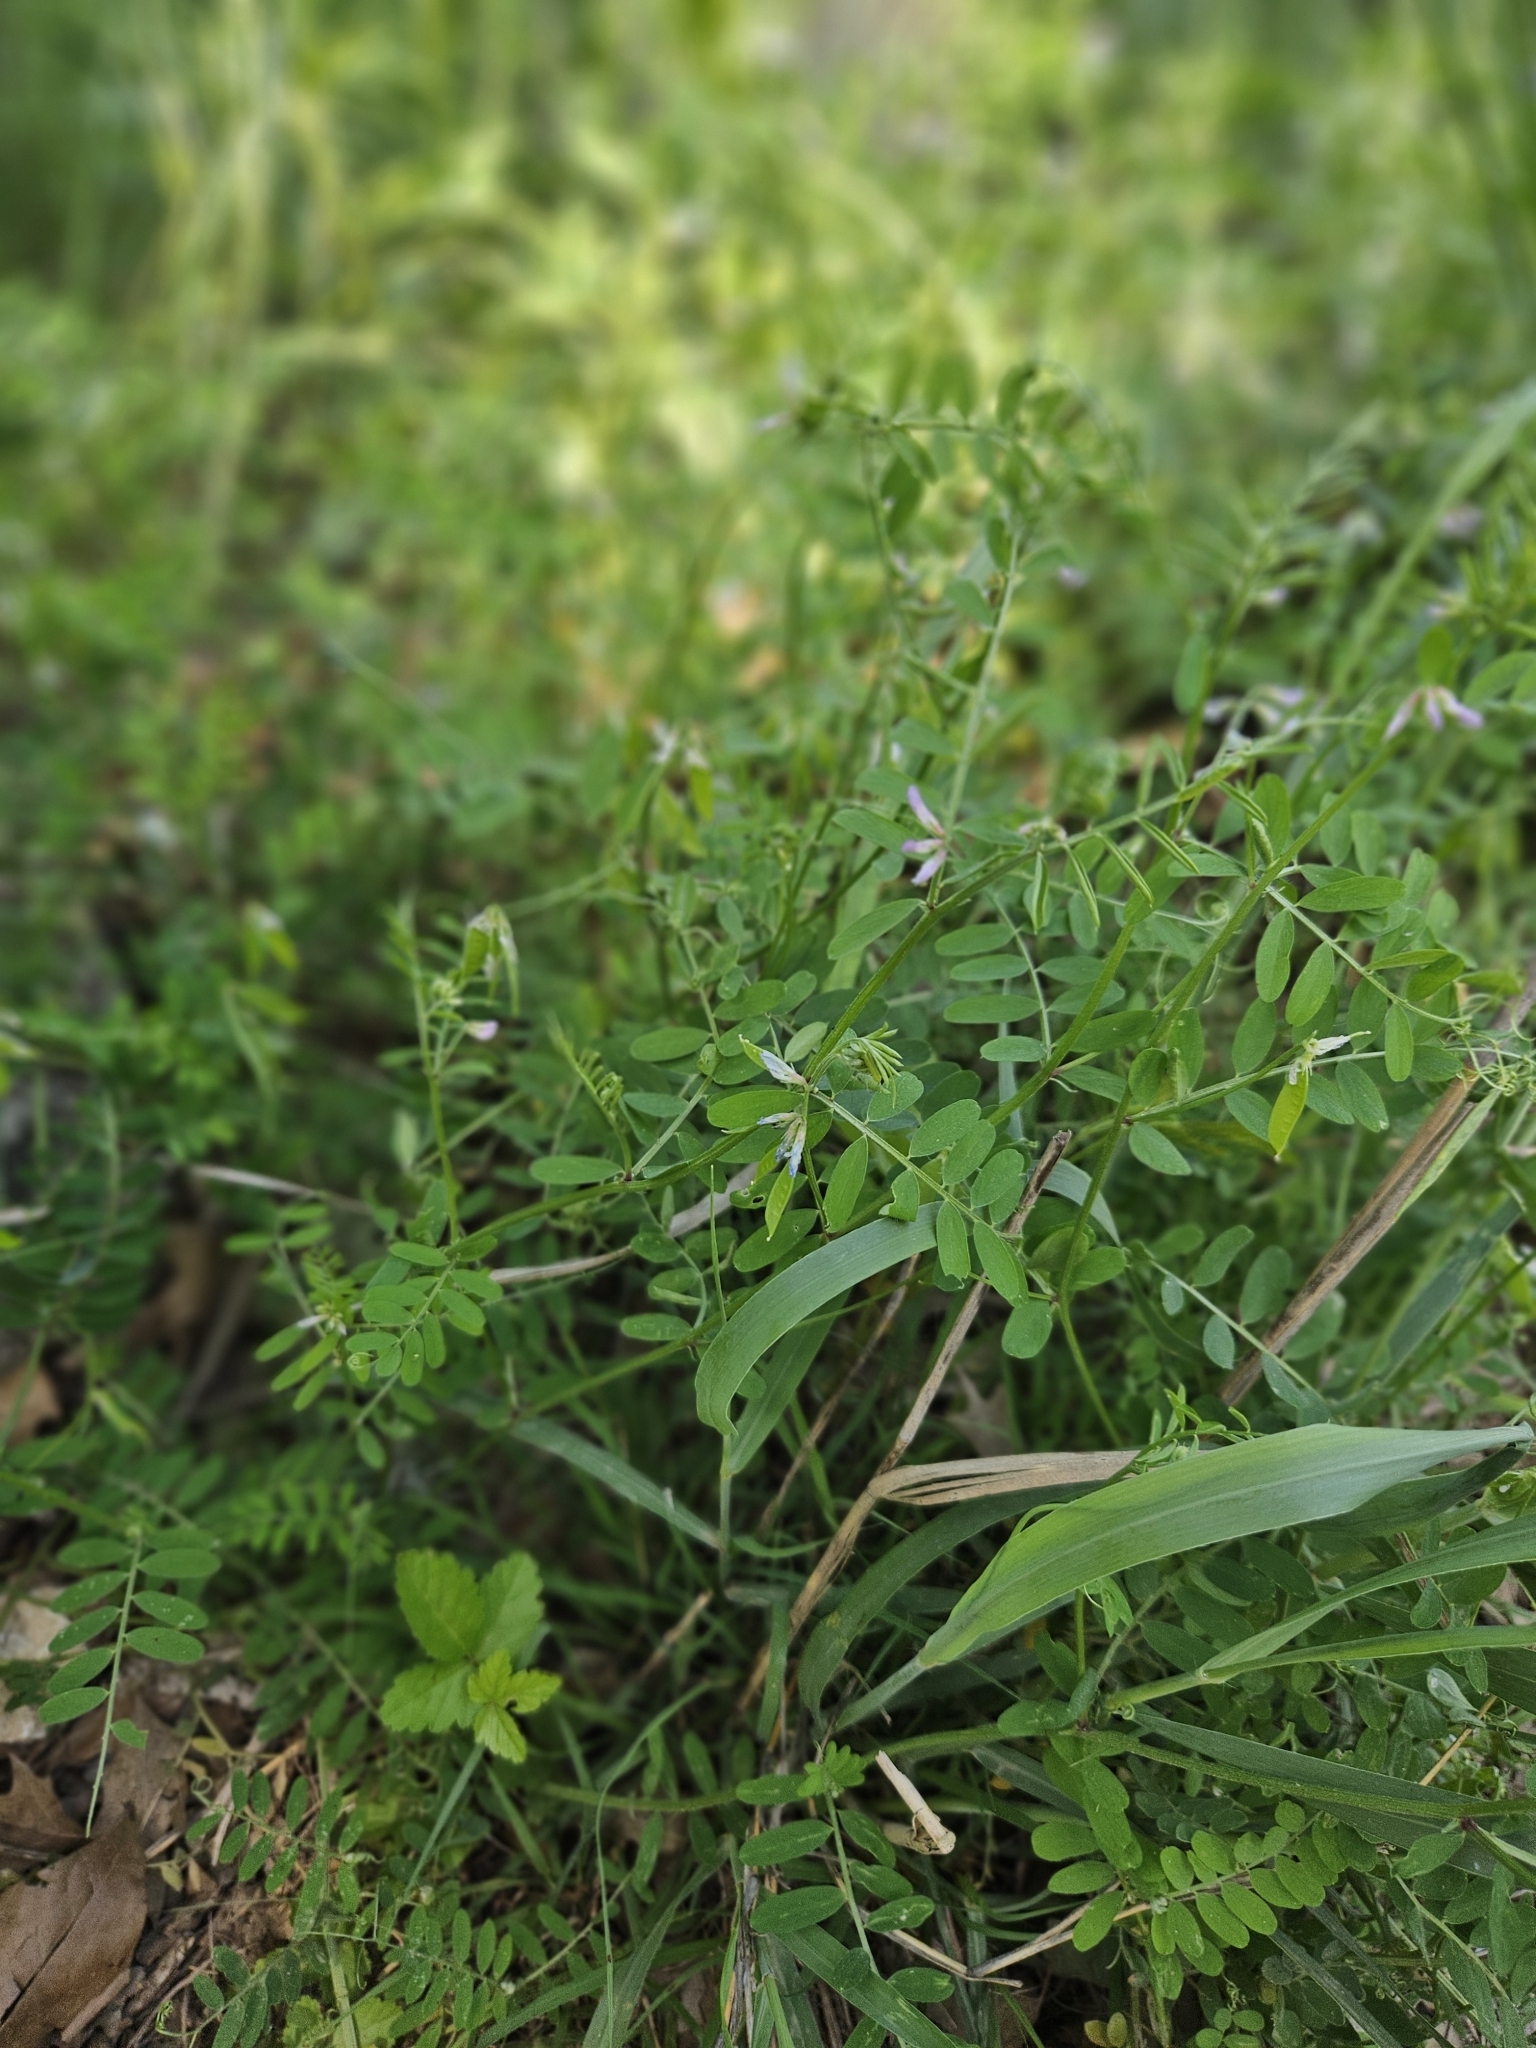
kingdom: Plantae
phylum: Tracheophyta
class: Magnoliopsida
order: Fabales
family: Fabaceae
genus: Vicia
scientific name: Vicia ludoviciana
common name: Louisiana vetch
